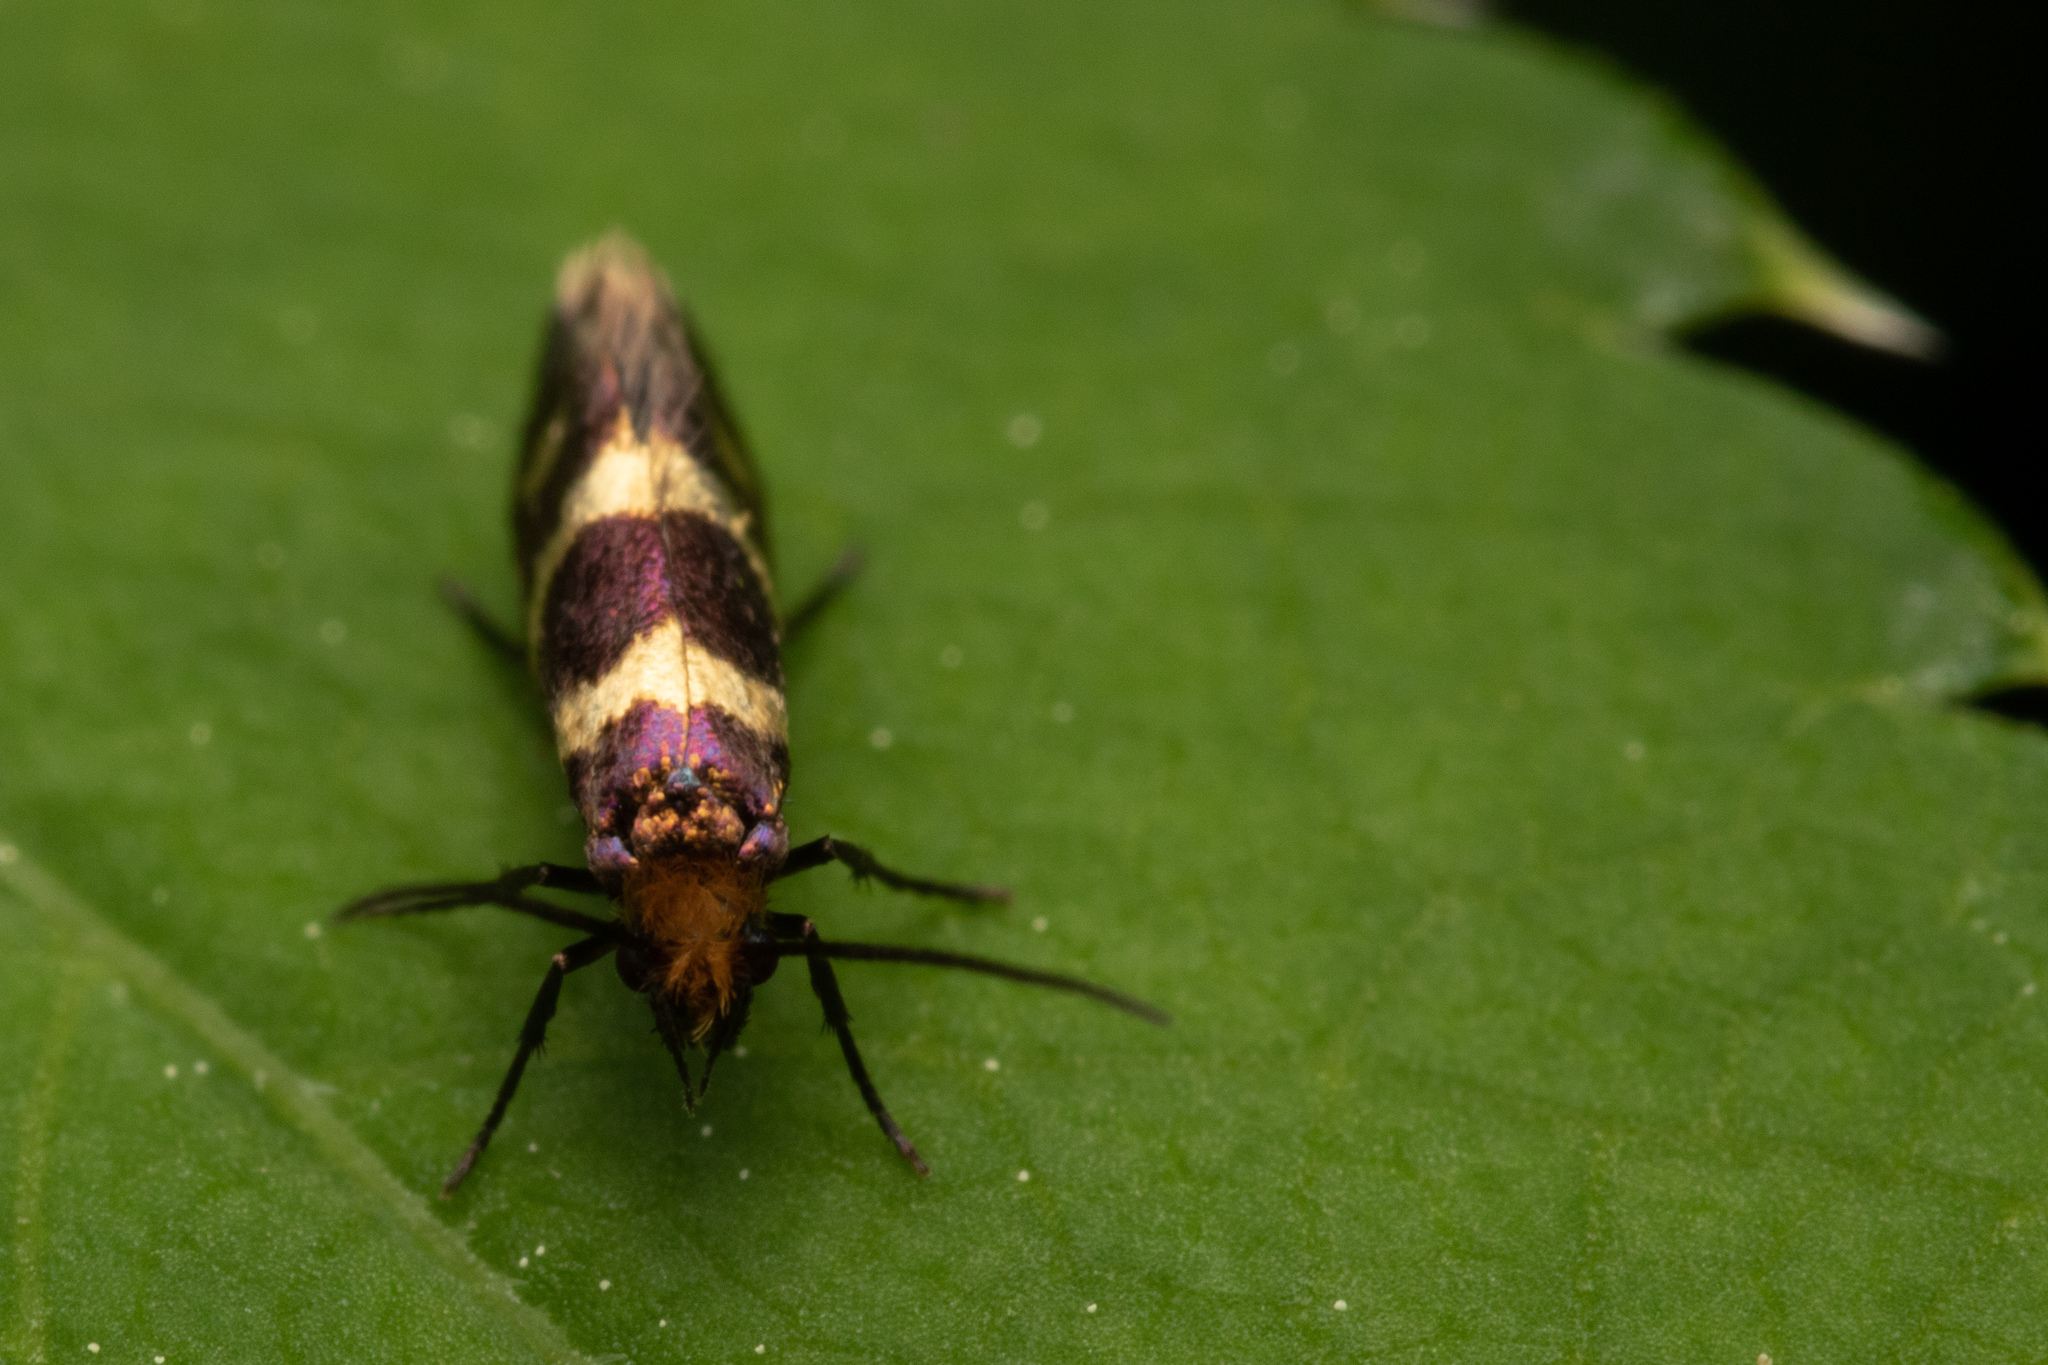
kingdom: Animalia
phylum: Arthropoda
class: Insecta
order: Lepidoptera
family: Micropterigidae
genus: Micropterix
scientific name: Micropterix aureatella
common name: Yellow-barred gold
